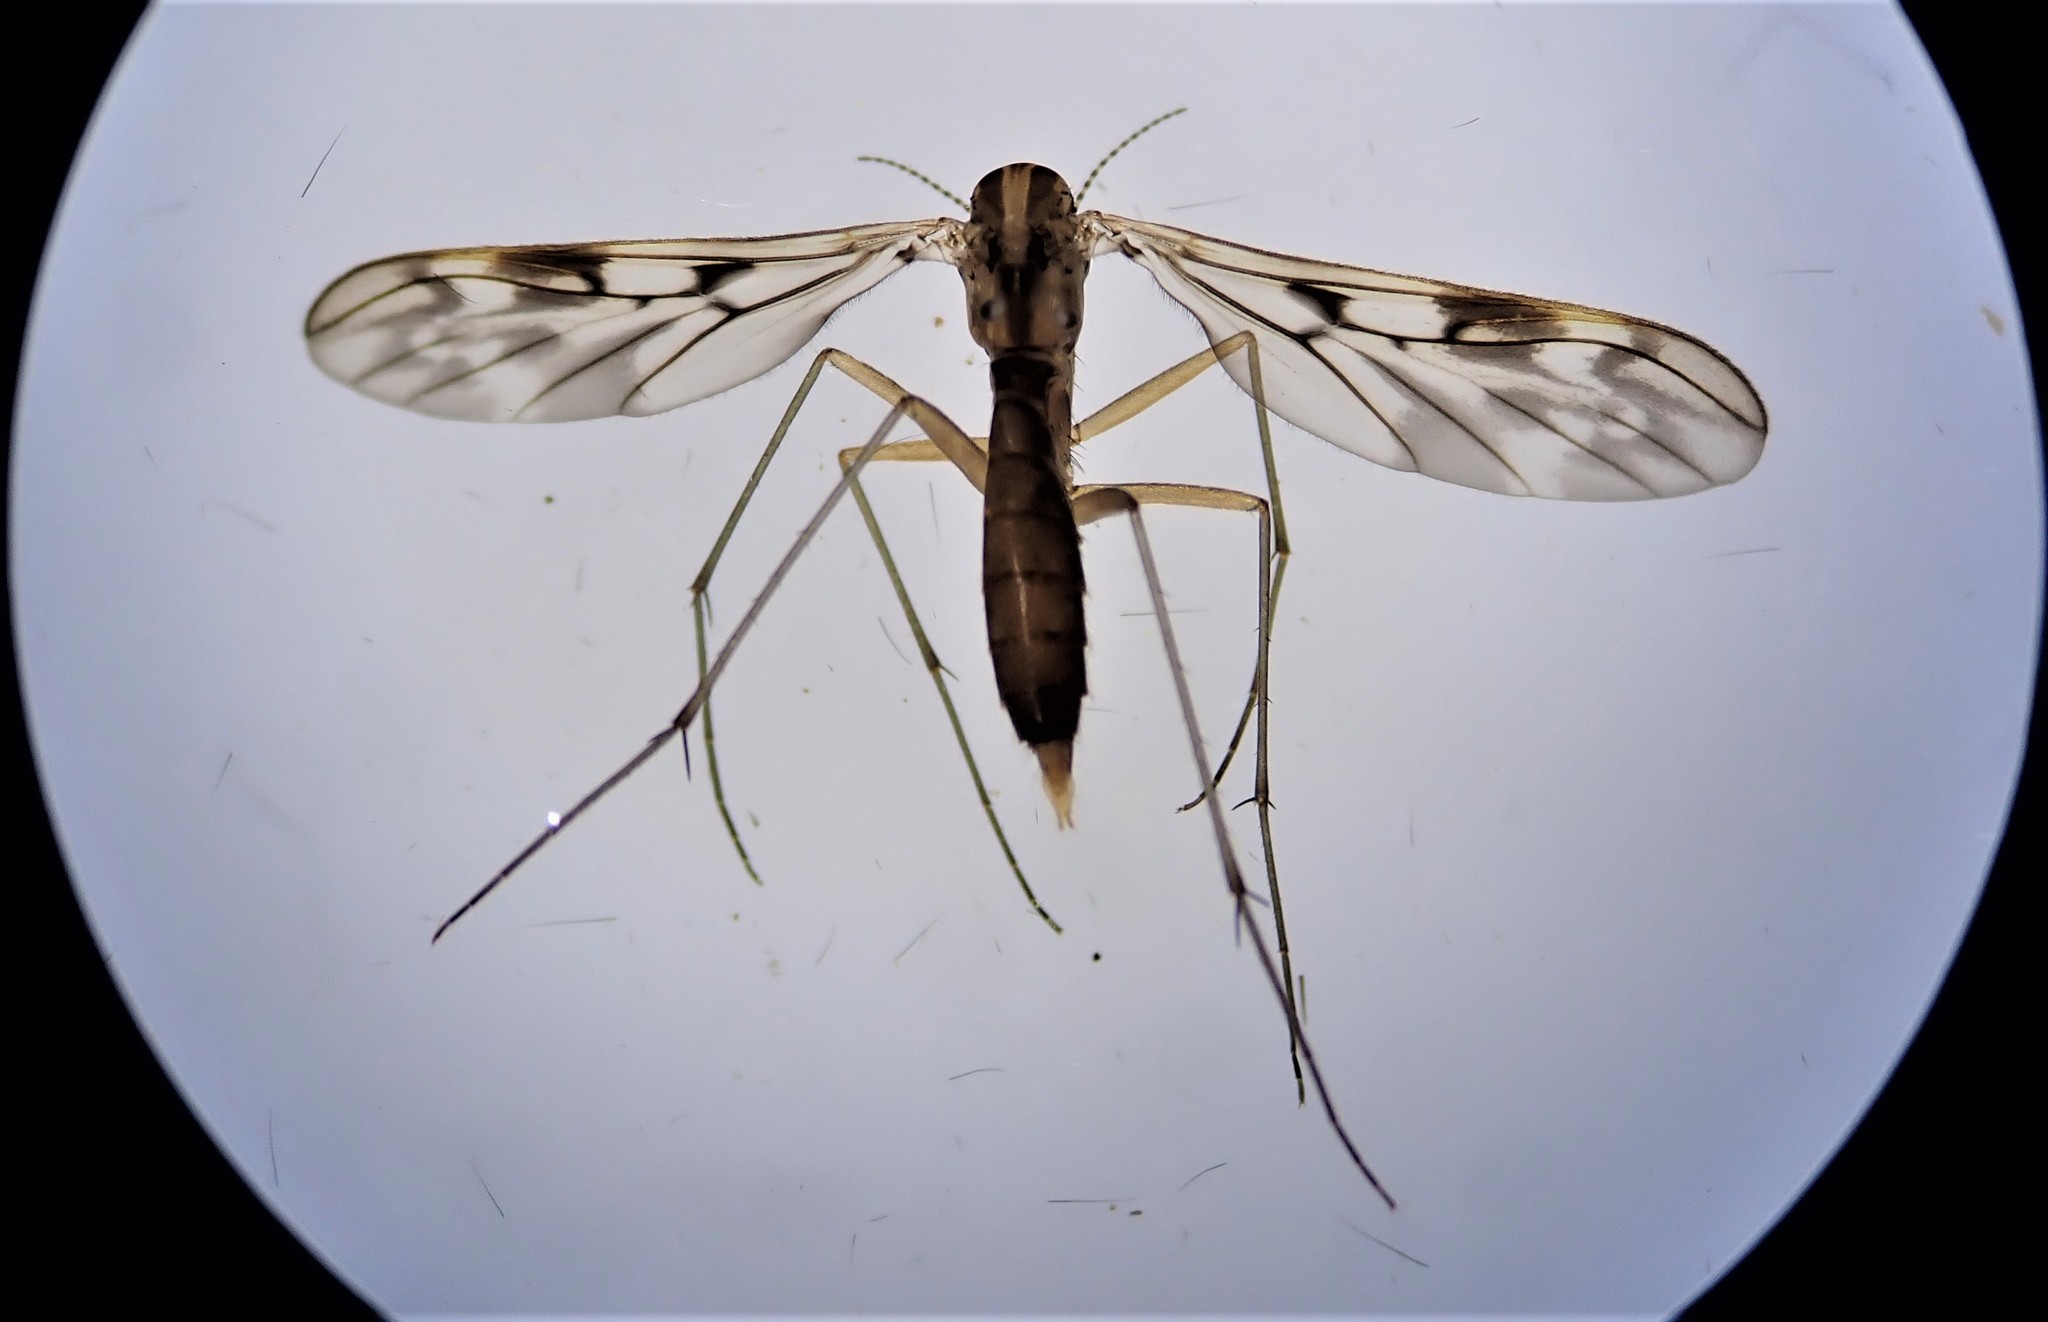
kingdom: Animalia
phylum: Arthropoda
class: Insecta
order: Diptera
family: Ditomyiidae
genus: Nervijuncta
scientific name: Nervijuncta wakefieldi
